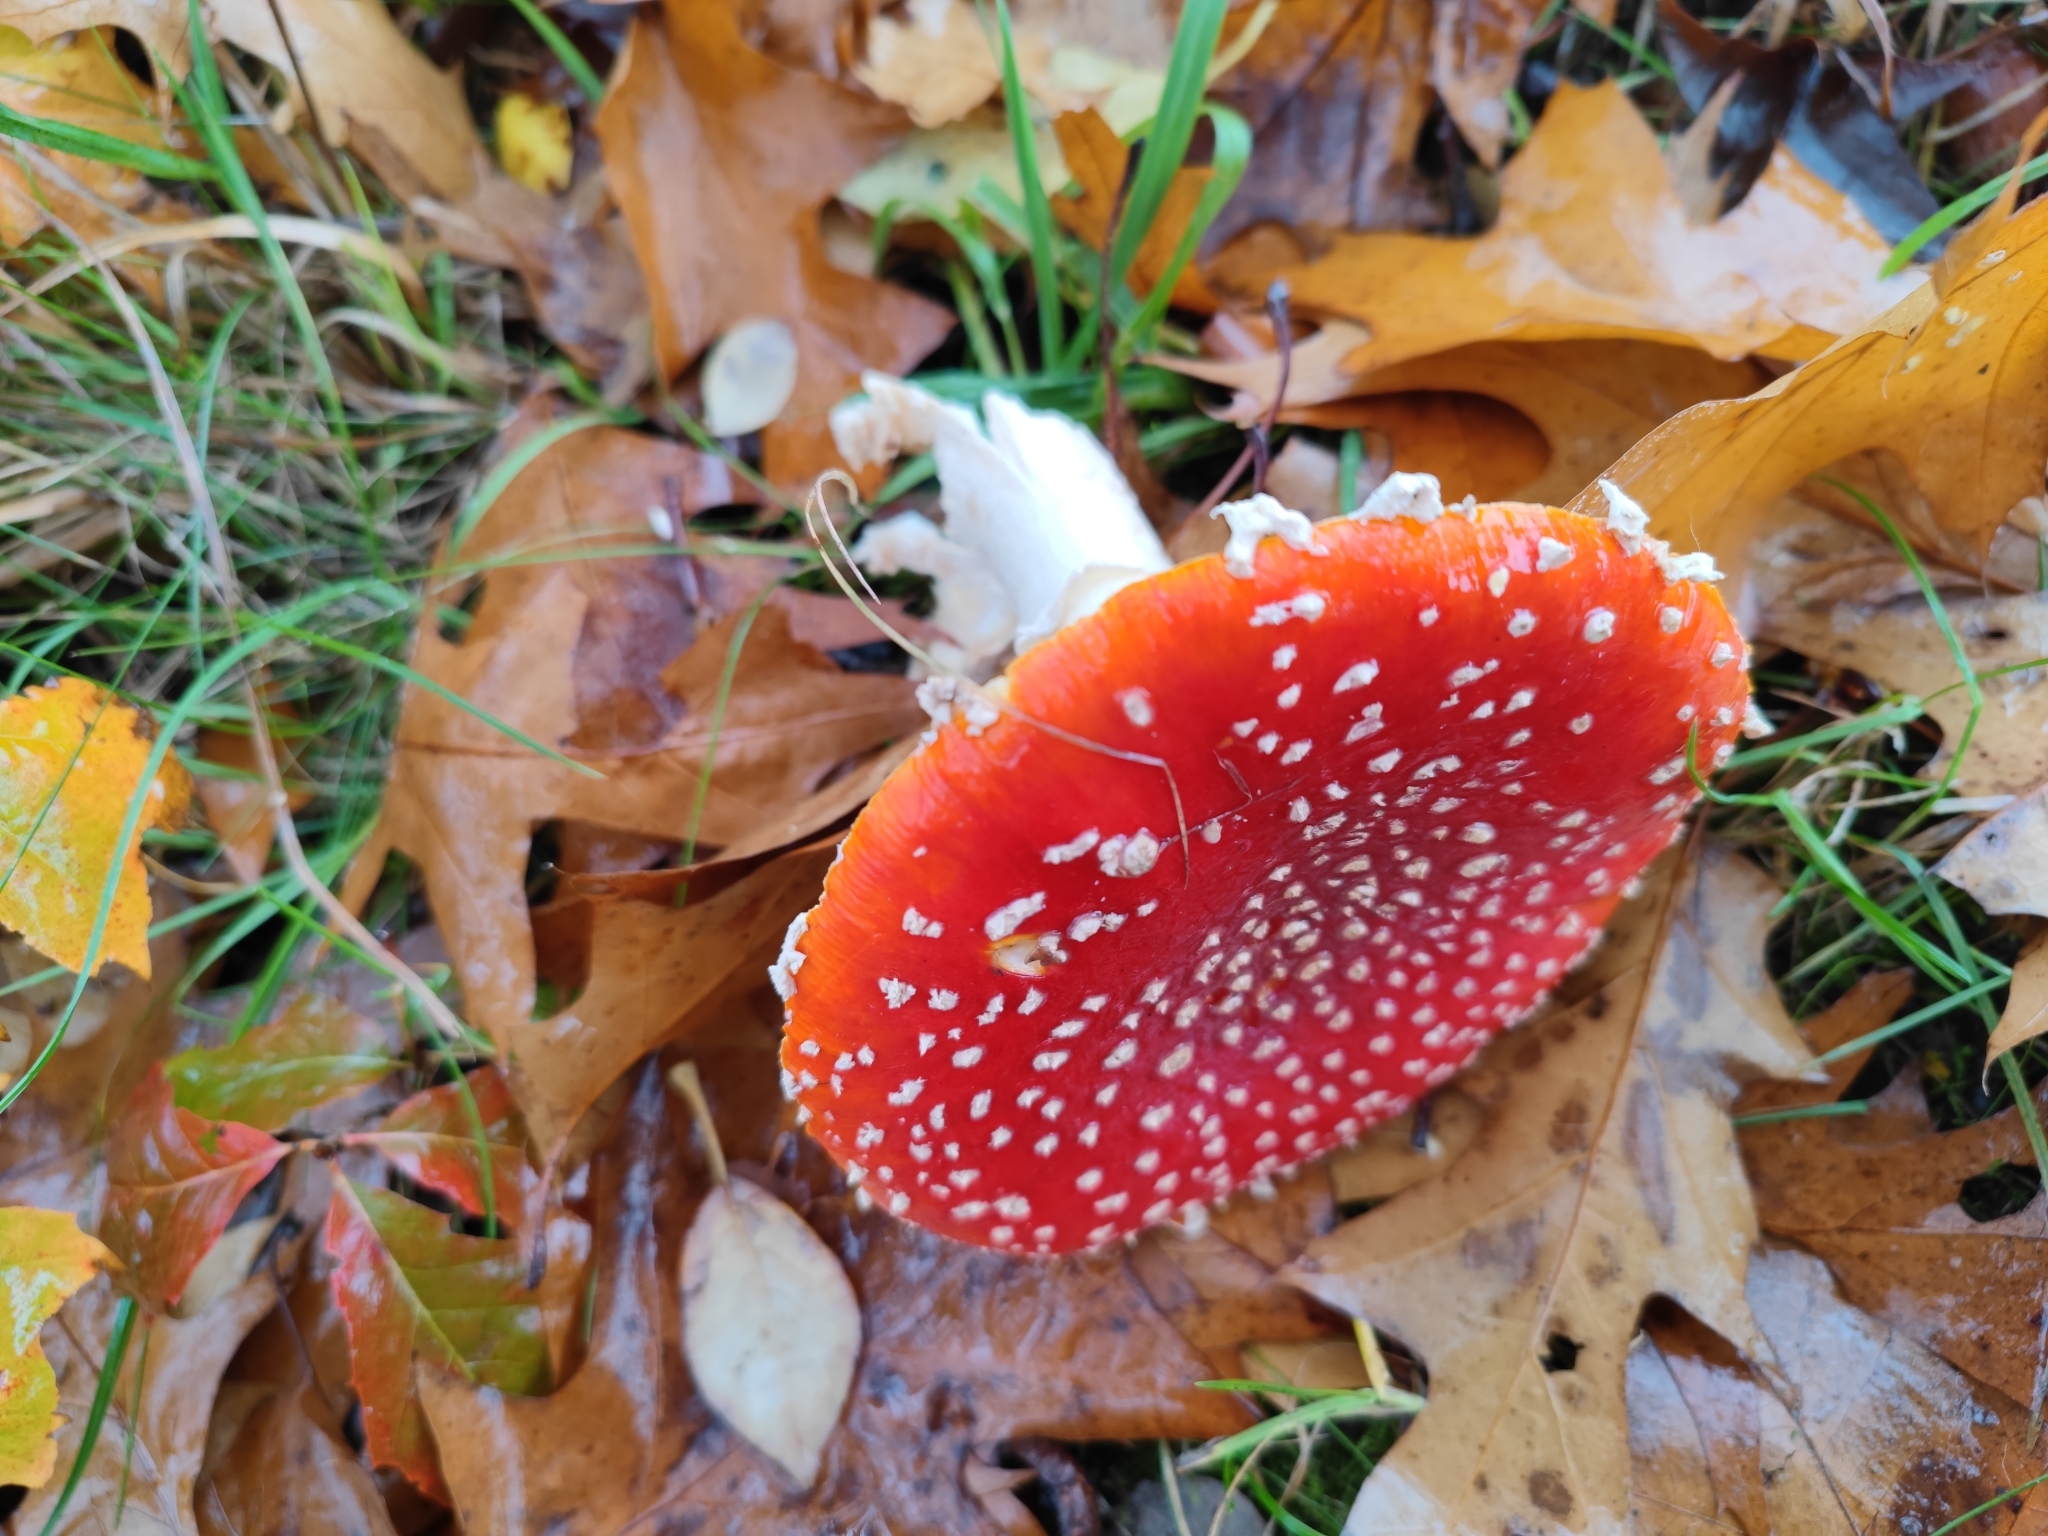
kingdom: Fungi
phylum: Basidiomycota
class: Agaricomycetes
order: Agaricales
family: Amanitaceae
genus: Amanita
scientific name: Amanita muscaria
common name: Fly agaric
